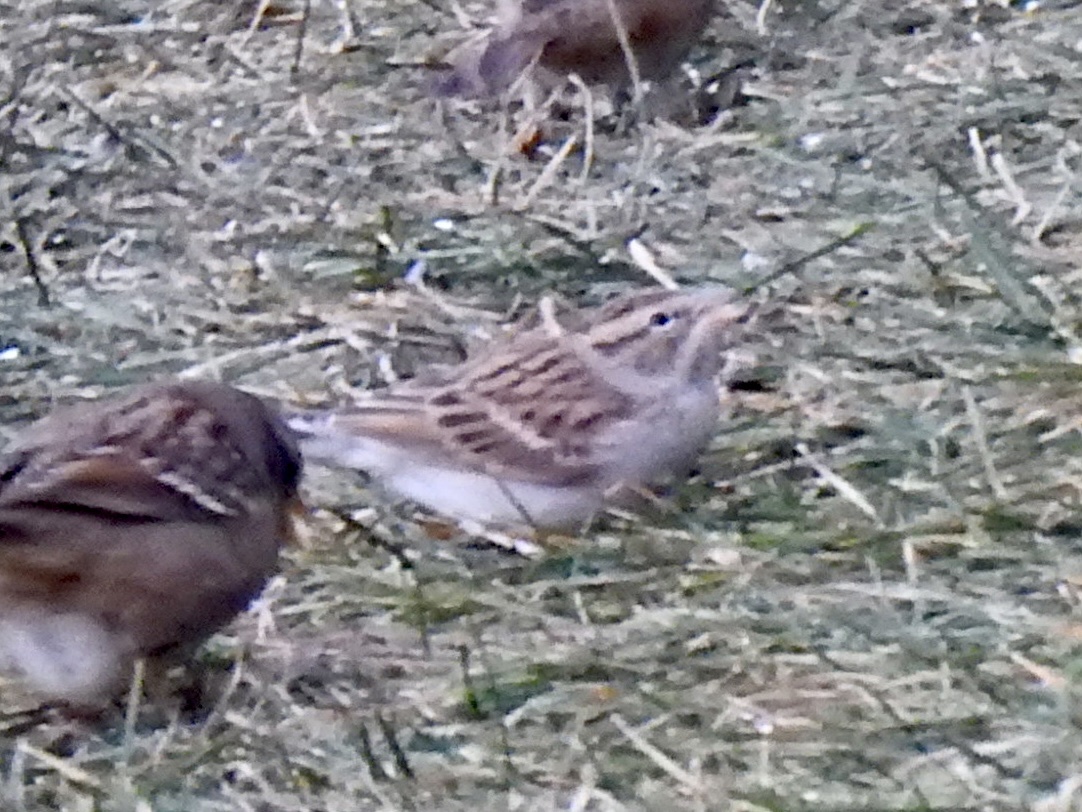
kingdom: Animalia
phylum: Chordata
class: Aves
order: Passeriformes
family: Passerellidae
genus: Spizella
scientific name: Spizella passerina
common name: Chipping sparrow
